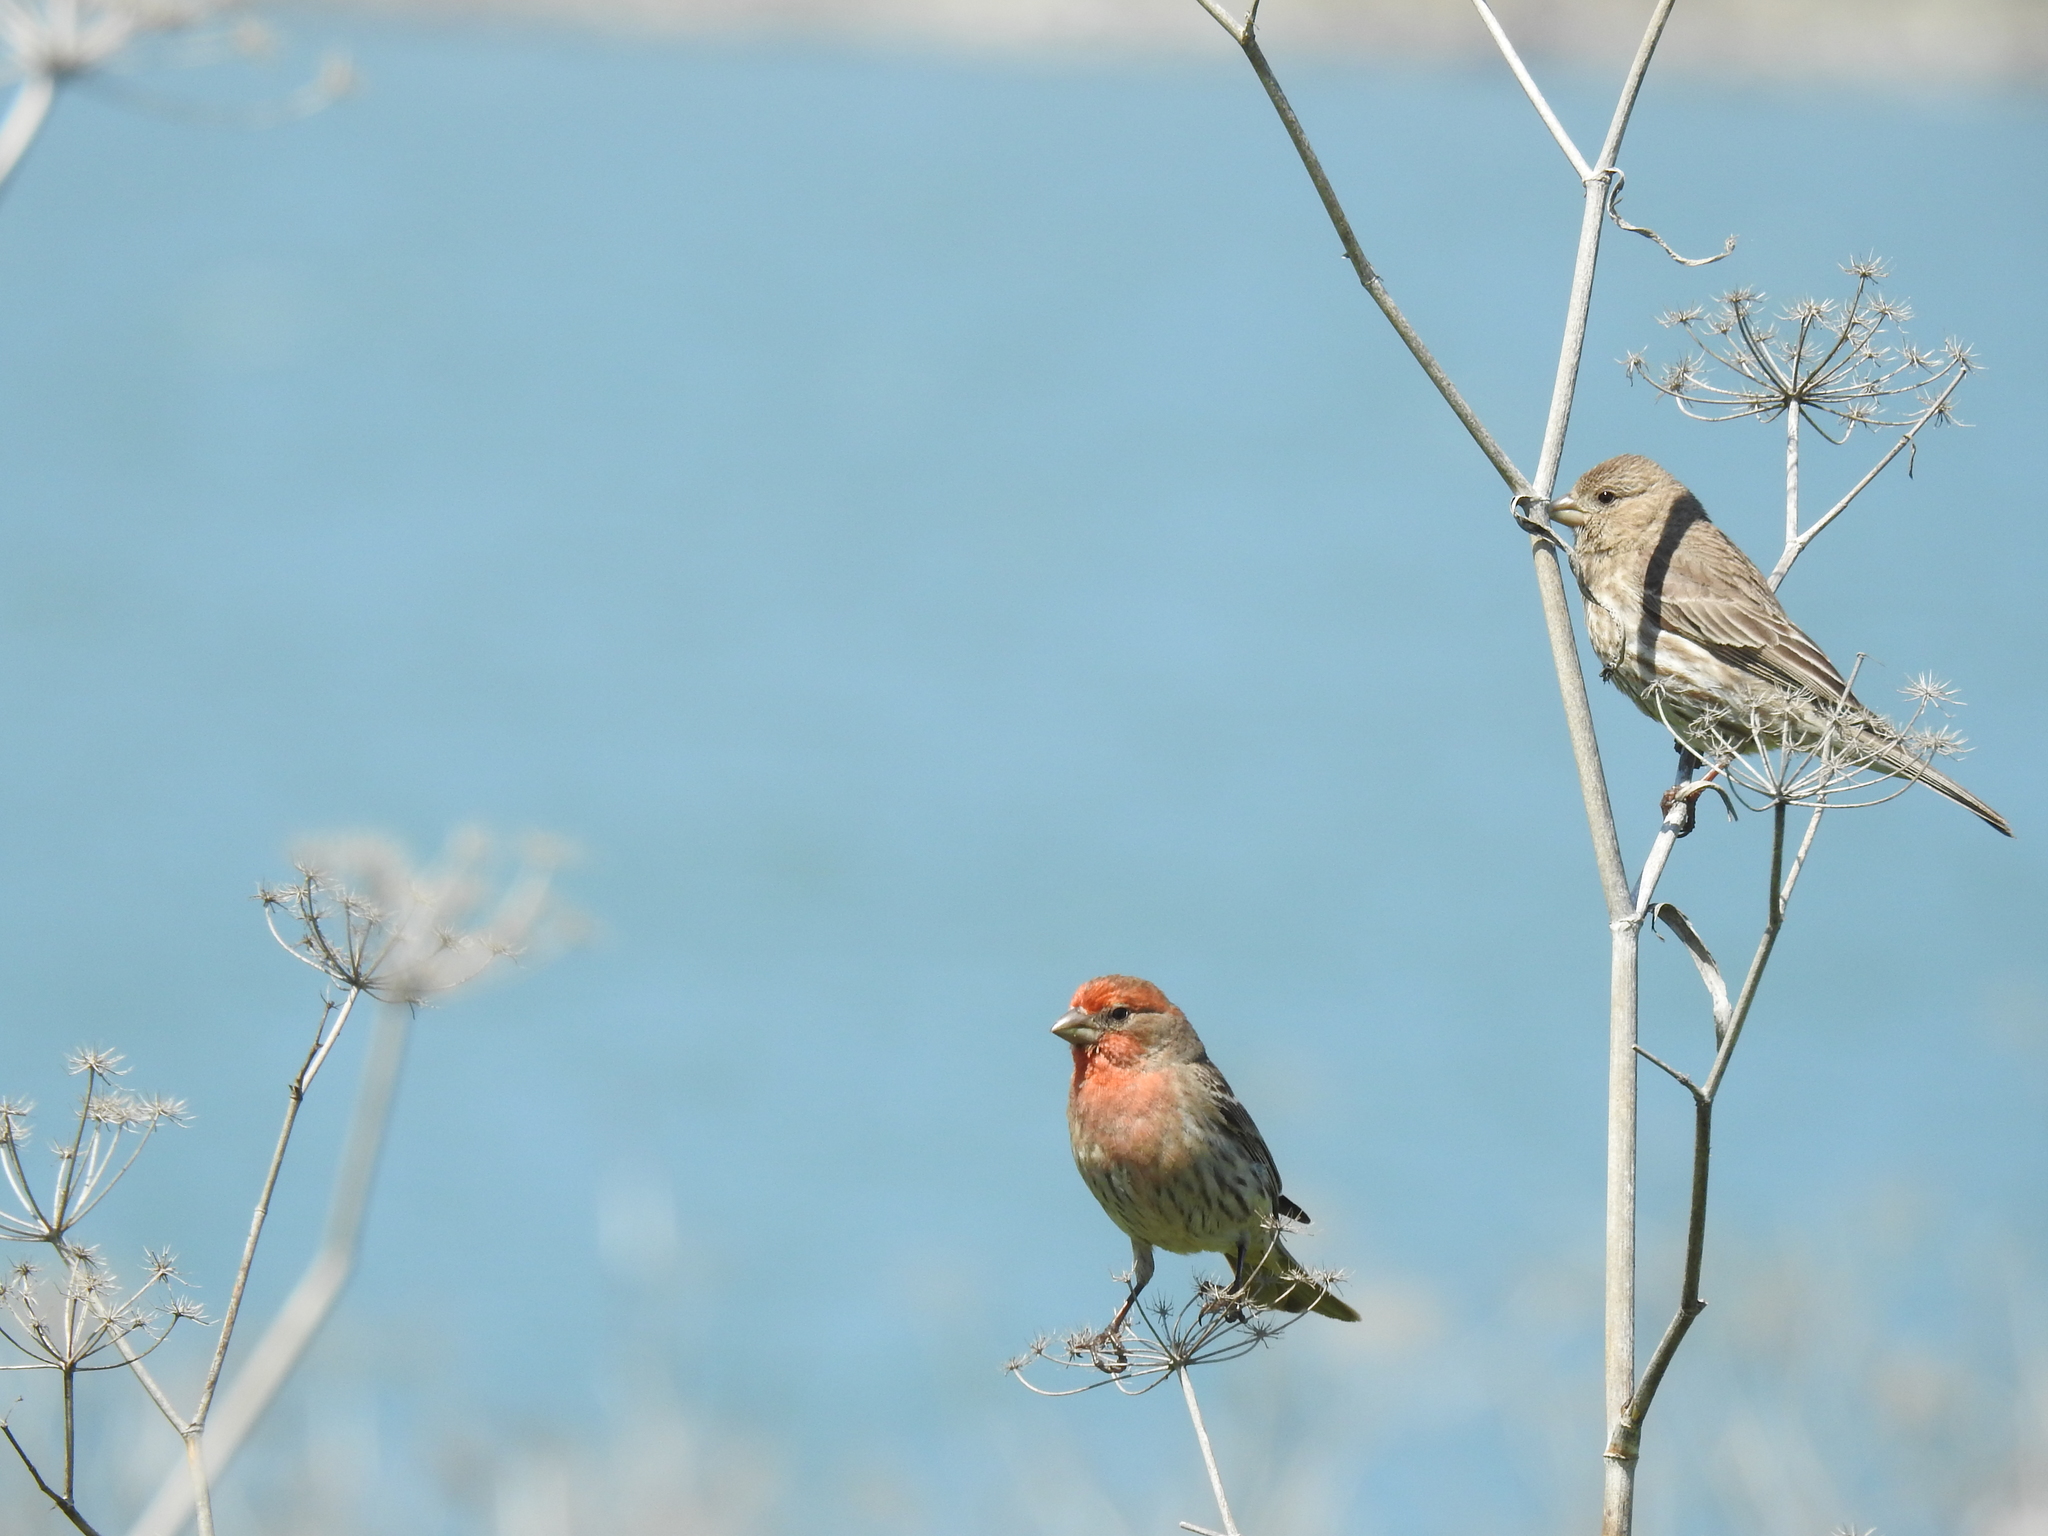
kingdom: Animalia
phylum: Chordata
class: Aves
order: Passeriformes
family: Fringillidae
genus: Haemorhous
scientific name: Haemorhous mexicanus
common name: House finch
